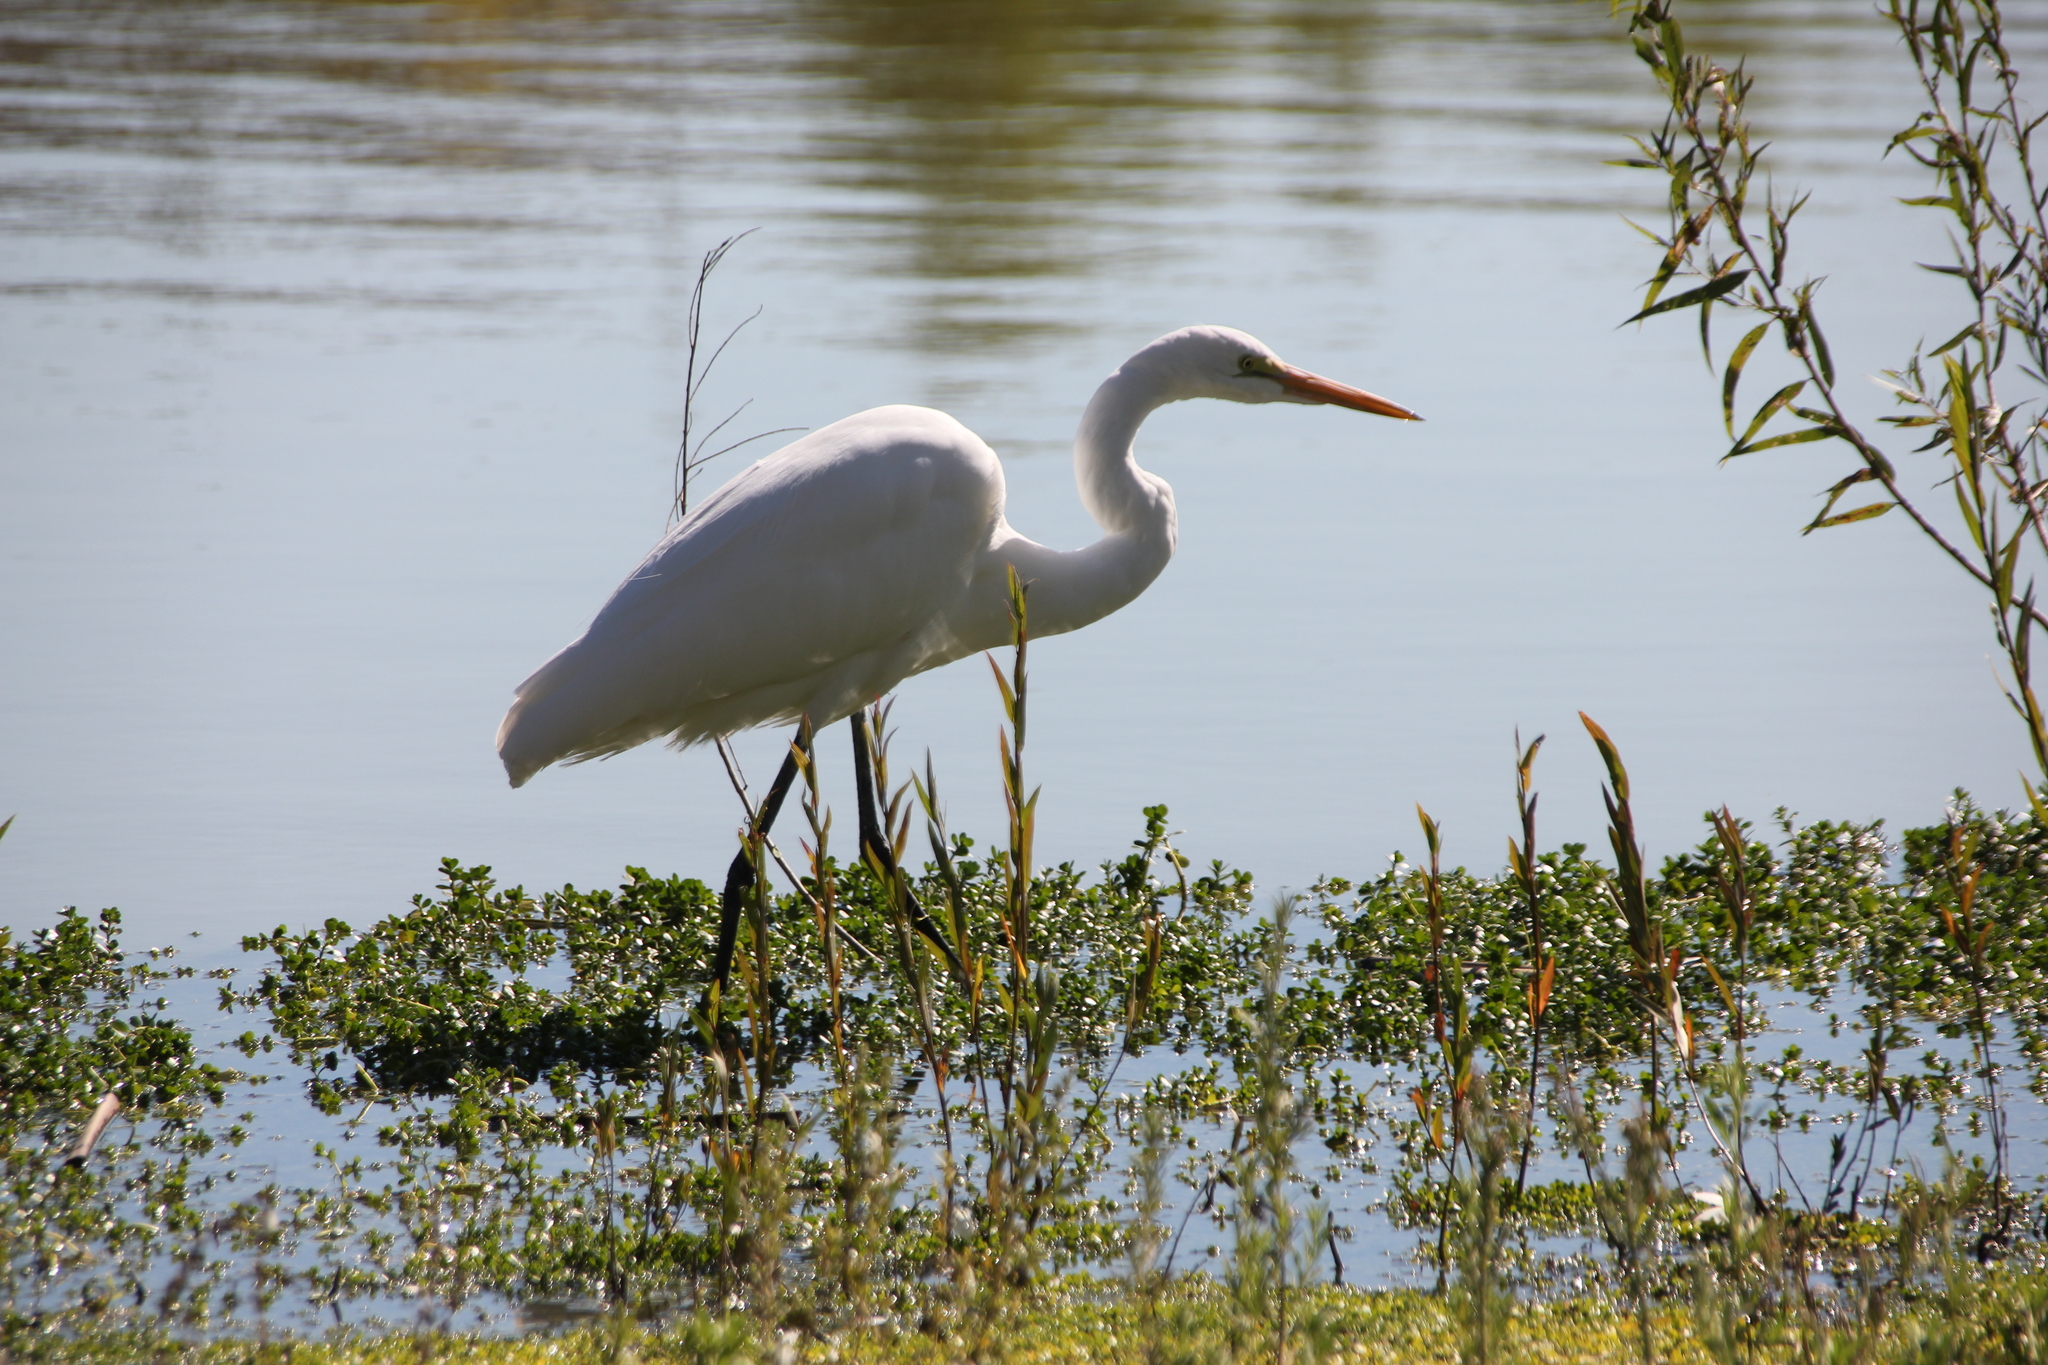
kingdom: Animalia
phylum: Chordata
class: Aves
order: Pelecaniformes
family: Ardeidae
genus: Ardea
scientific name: Ardea alba
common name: Great egret
